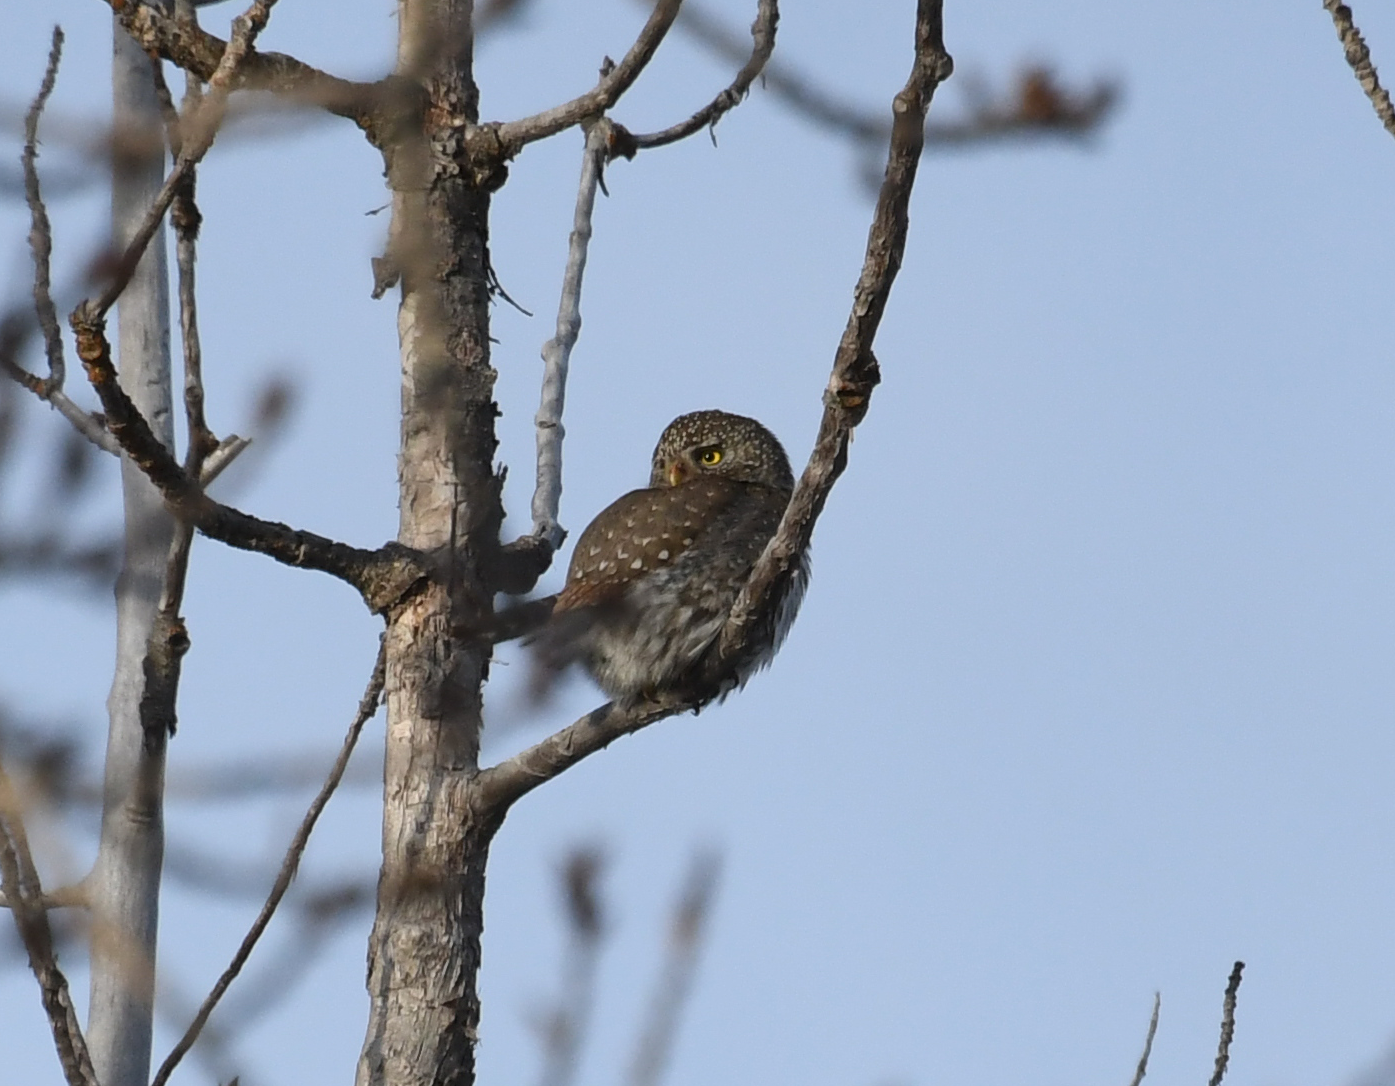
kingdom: Animalia
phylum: Chordata
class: Aves
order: Strigiformes
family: Strigidae
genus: Glaucidium
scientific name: Glaucidium gnoma
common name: Northern pygmy-owl
